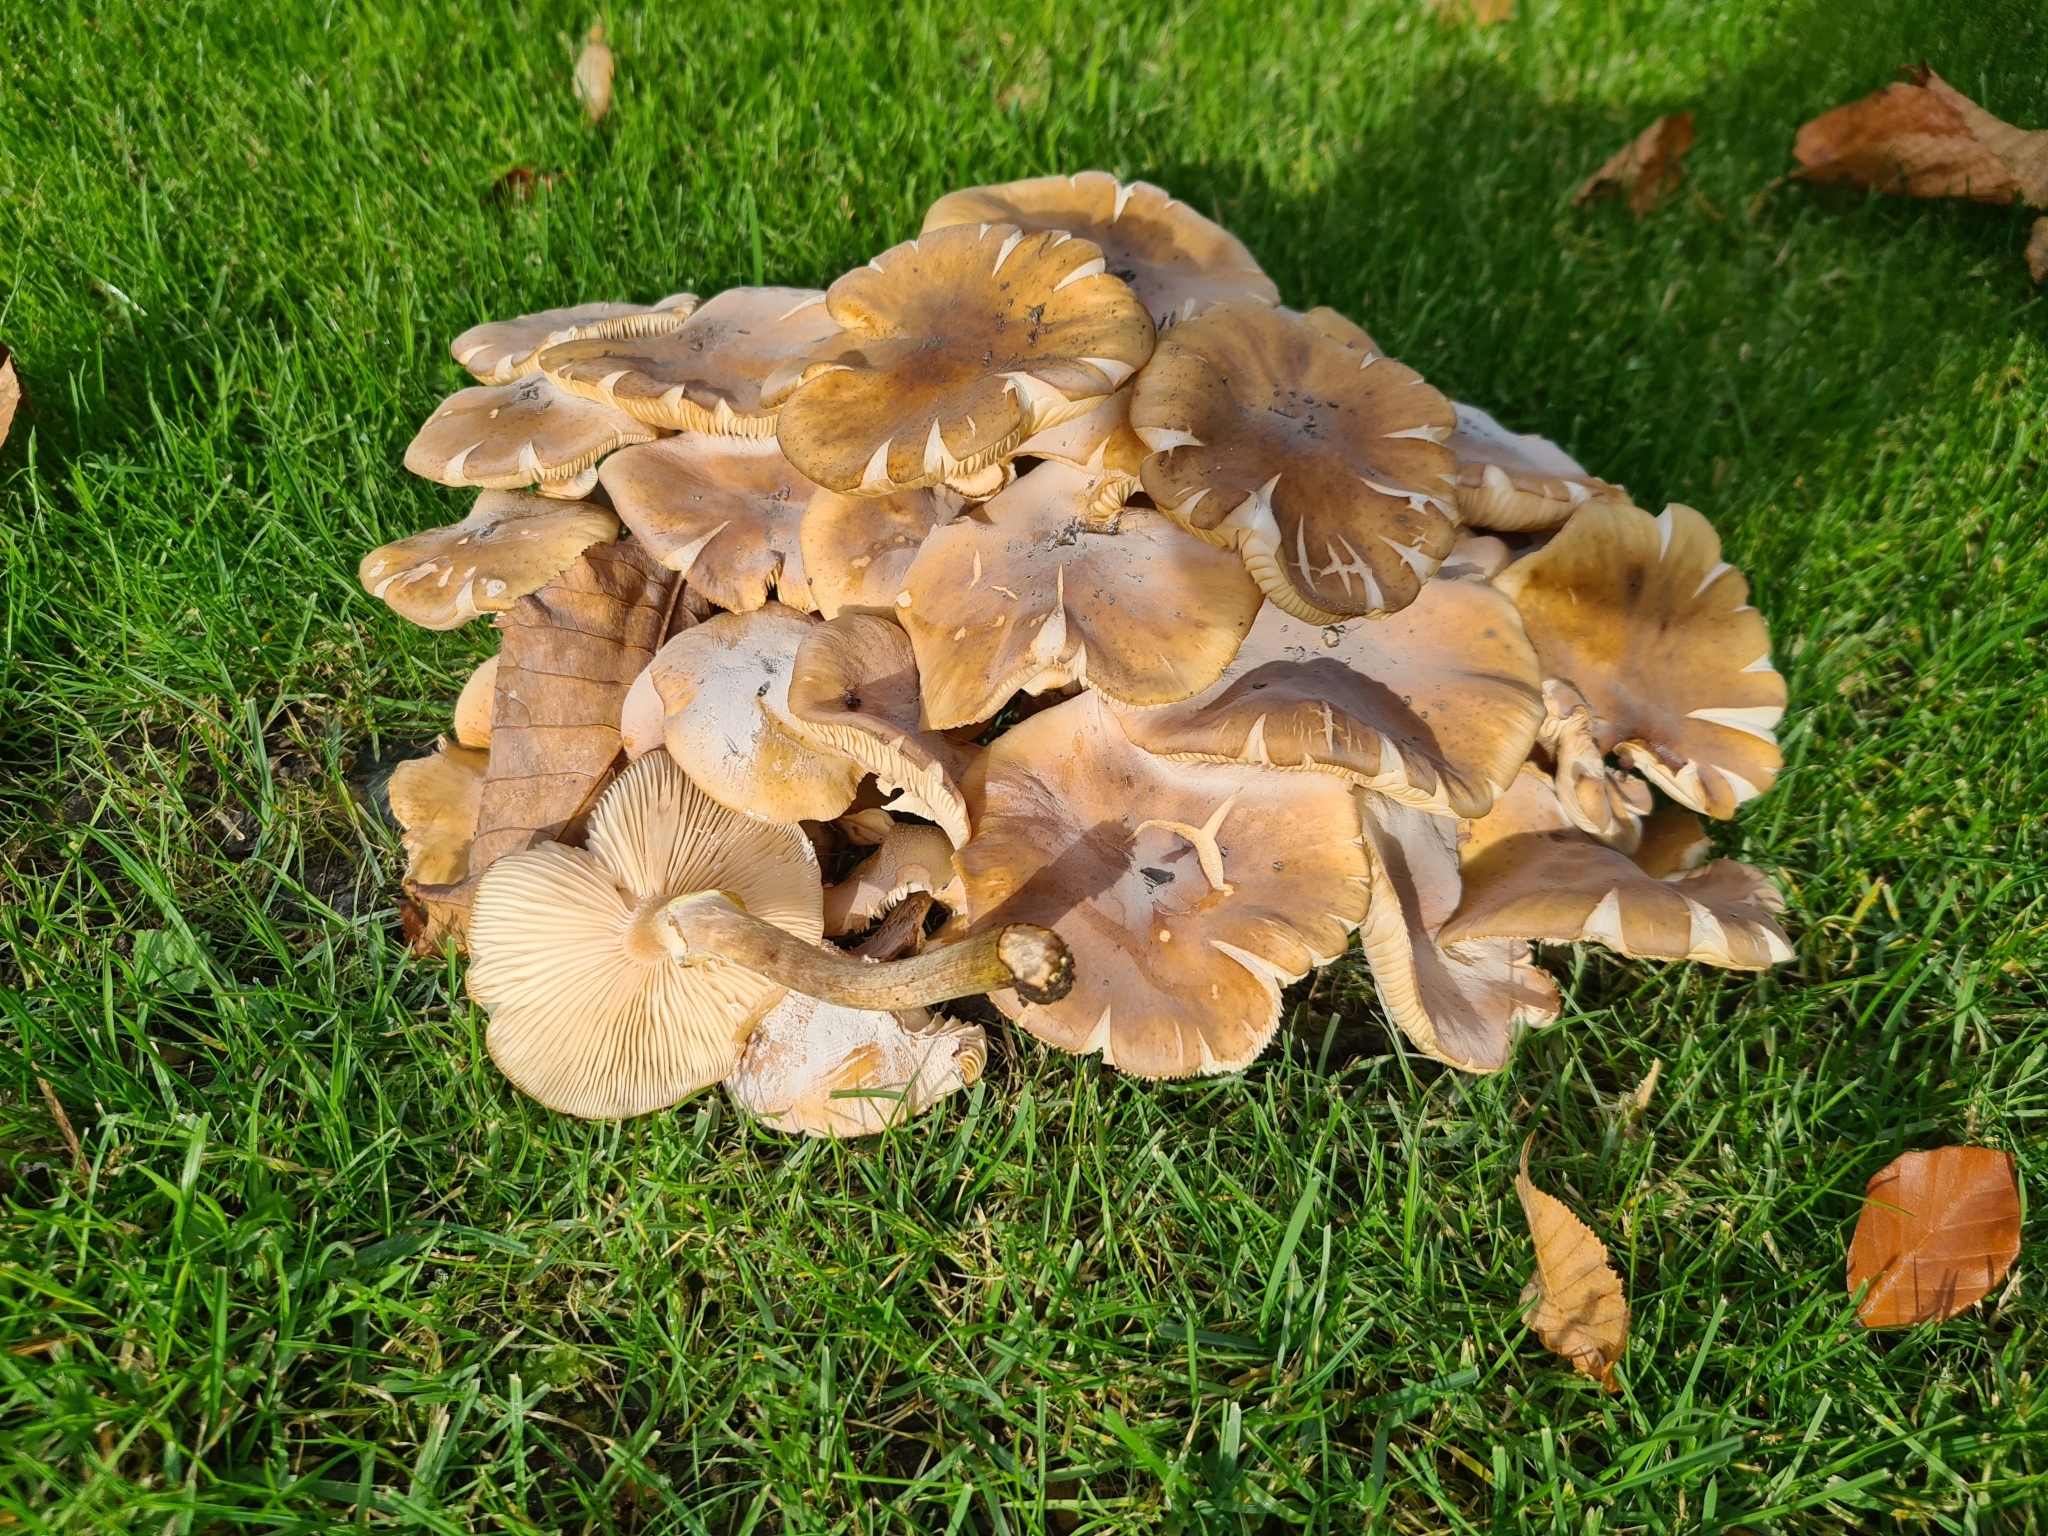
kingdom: Fungi
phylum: Basidiomycota
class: Agaricomycetes
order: Agaricales
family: Physalacriaceae
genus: Armillaria
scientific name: Armillaria mellea
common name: Honey fungus
